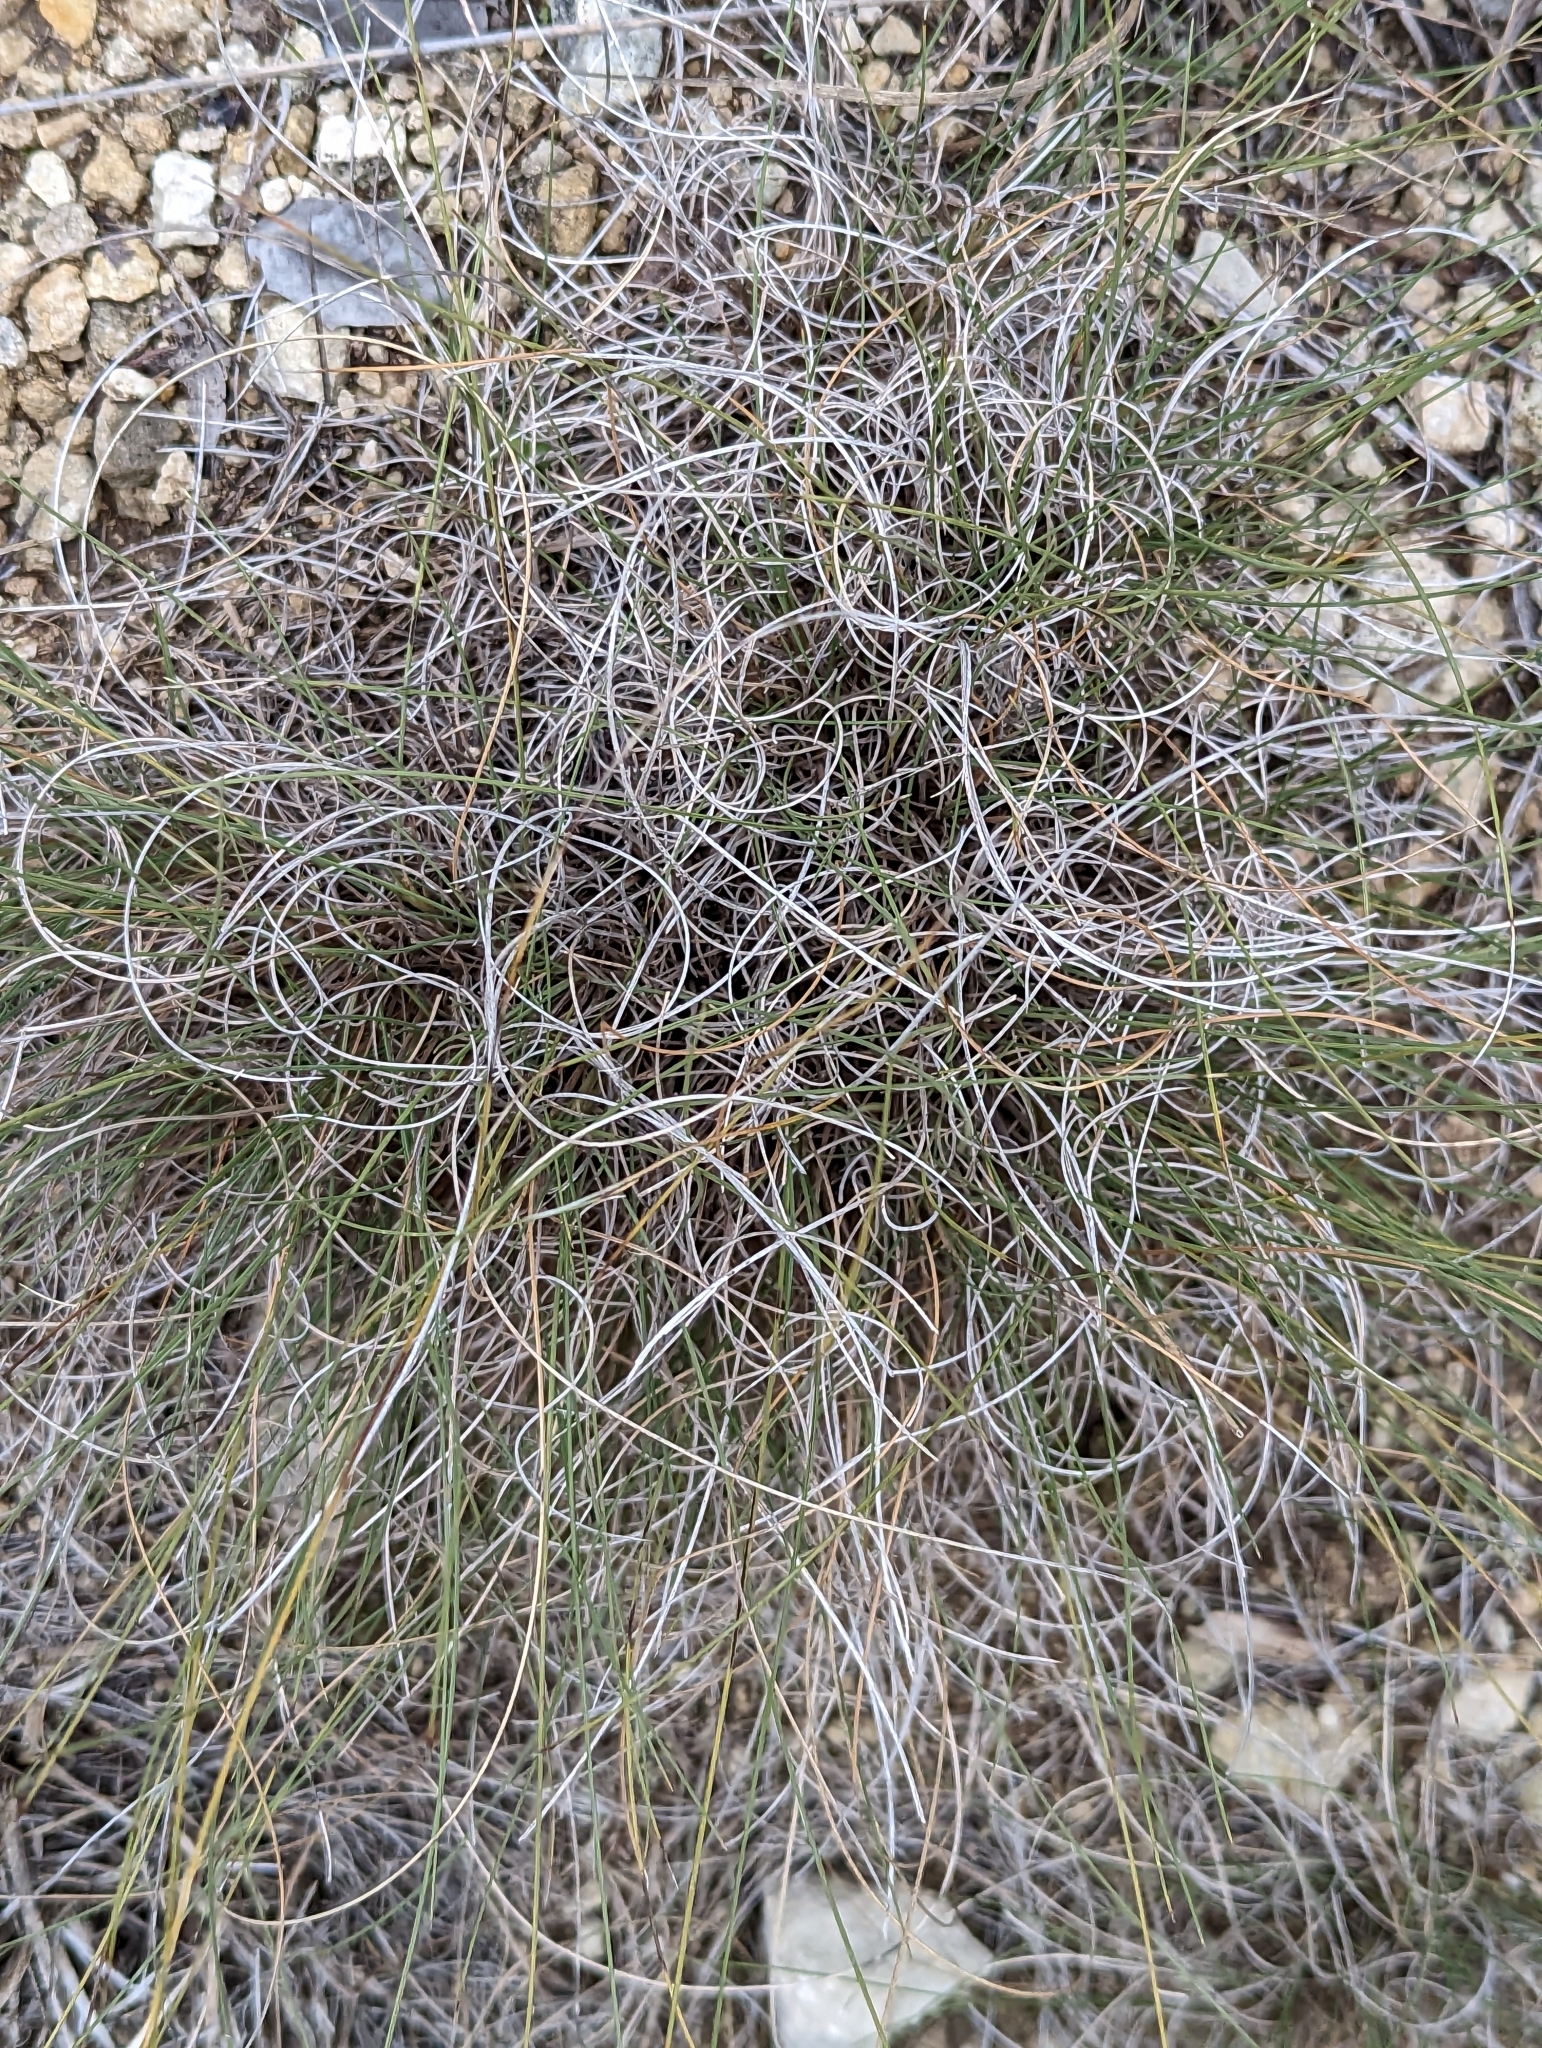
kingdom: Plantae
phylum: Tracheophyta
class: Liliopsida
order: Poales
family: Poaceae
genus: Muhlenbergia
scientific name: Muhlenbergia reverchonii
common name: Seep muhly
